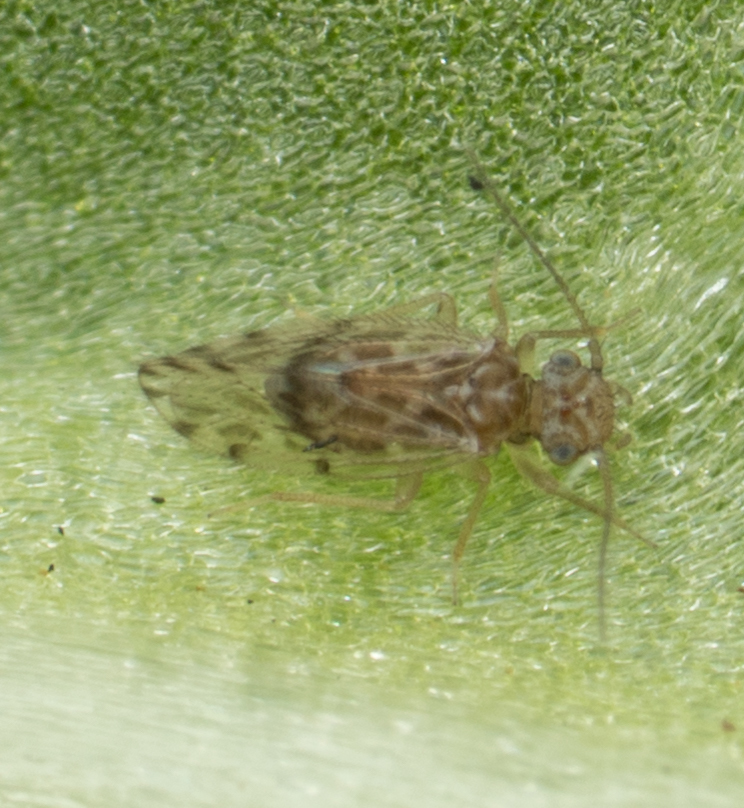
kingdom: Animalia
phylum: Arthropoda
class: Insecta
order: Psocodea
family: Ectopsocidae
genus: Ectopsocus
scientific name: Ectopsocus strauchi
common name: Medium-sized bark louse
